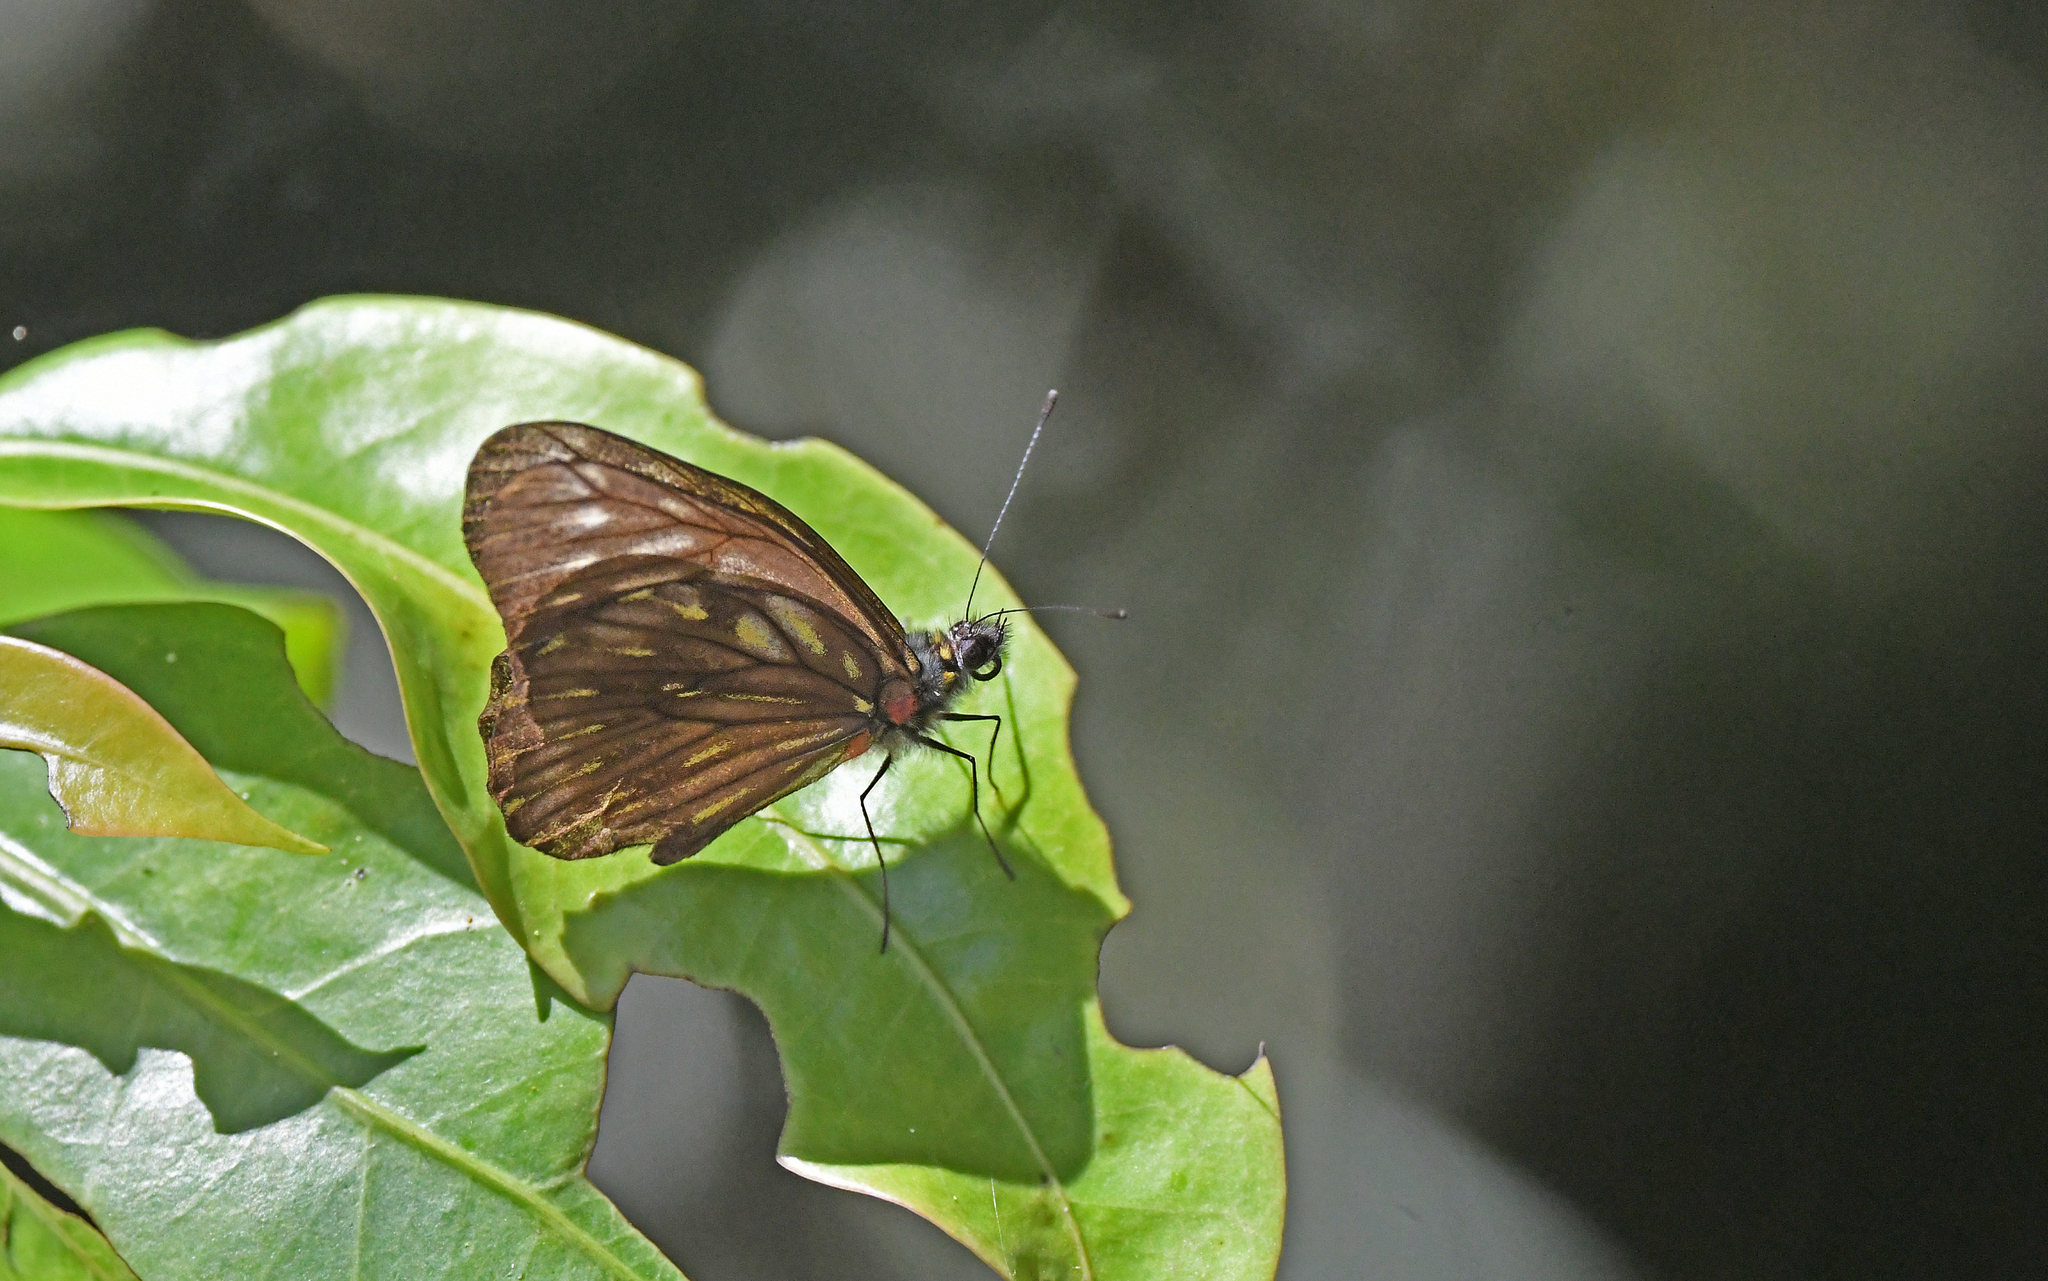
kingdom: Animalia
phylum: Arthropoda
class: Insecta
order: Lepidoptera
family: Pieridae
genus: Catasticta
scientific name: Catasticta ctemene
